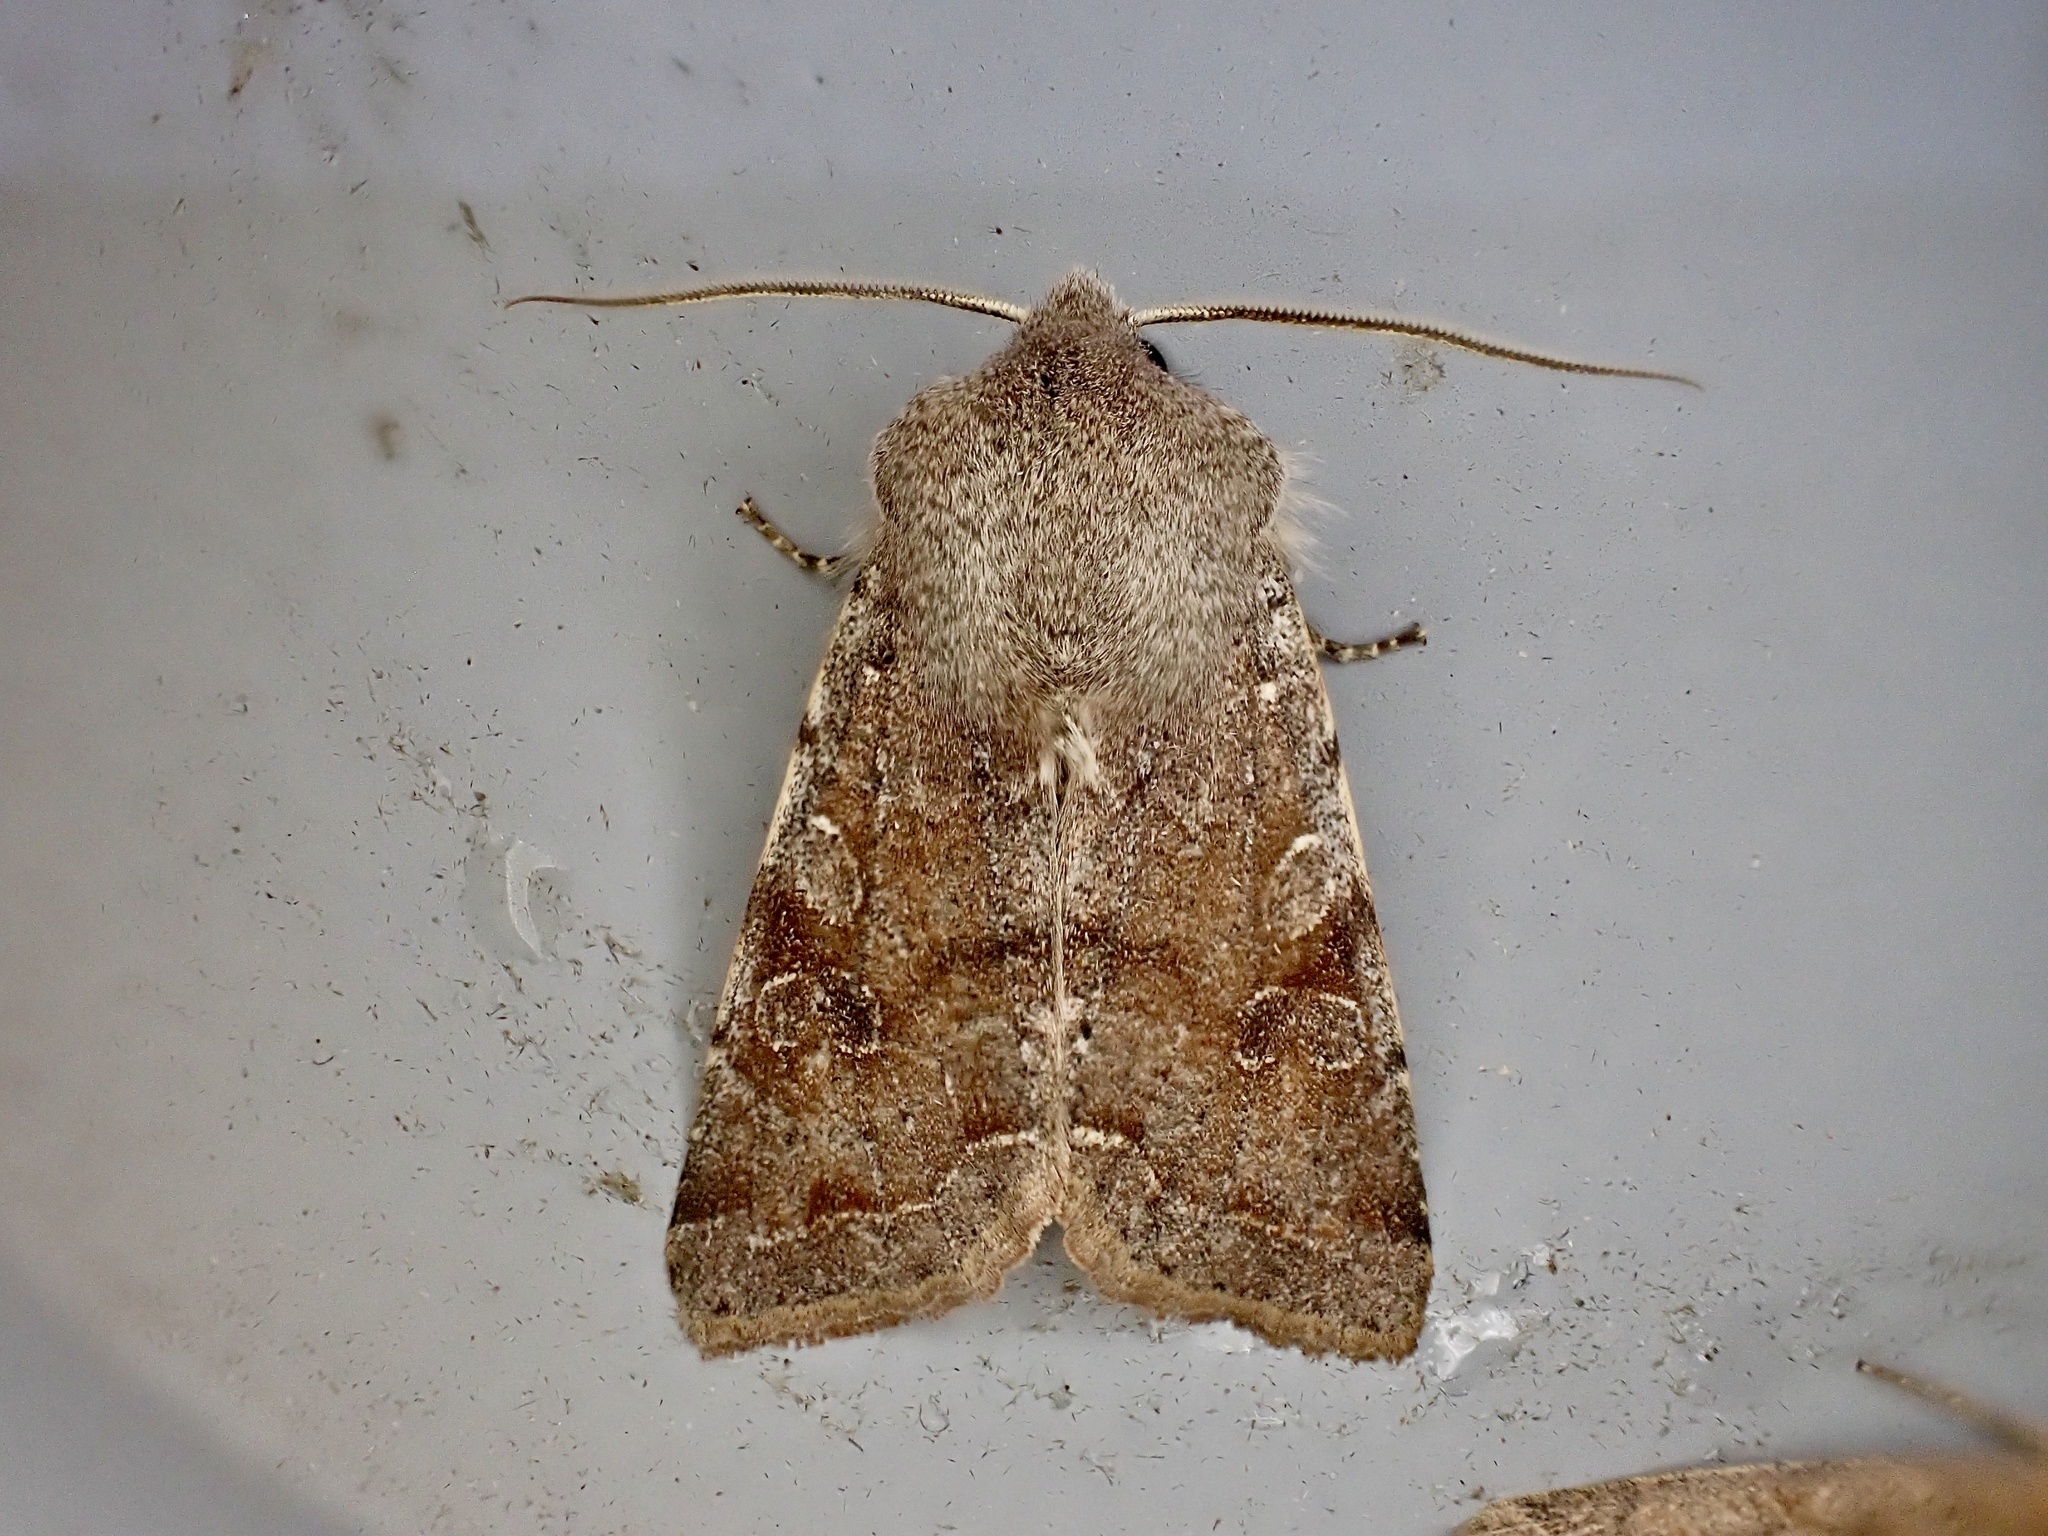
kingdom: Animalia
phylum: Arthropoda
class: Insecta
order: Lepidoptera
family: Noctuidae
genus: Orthosia
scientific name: Orthosia incerta
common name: Clouded drab
